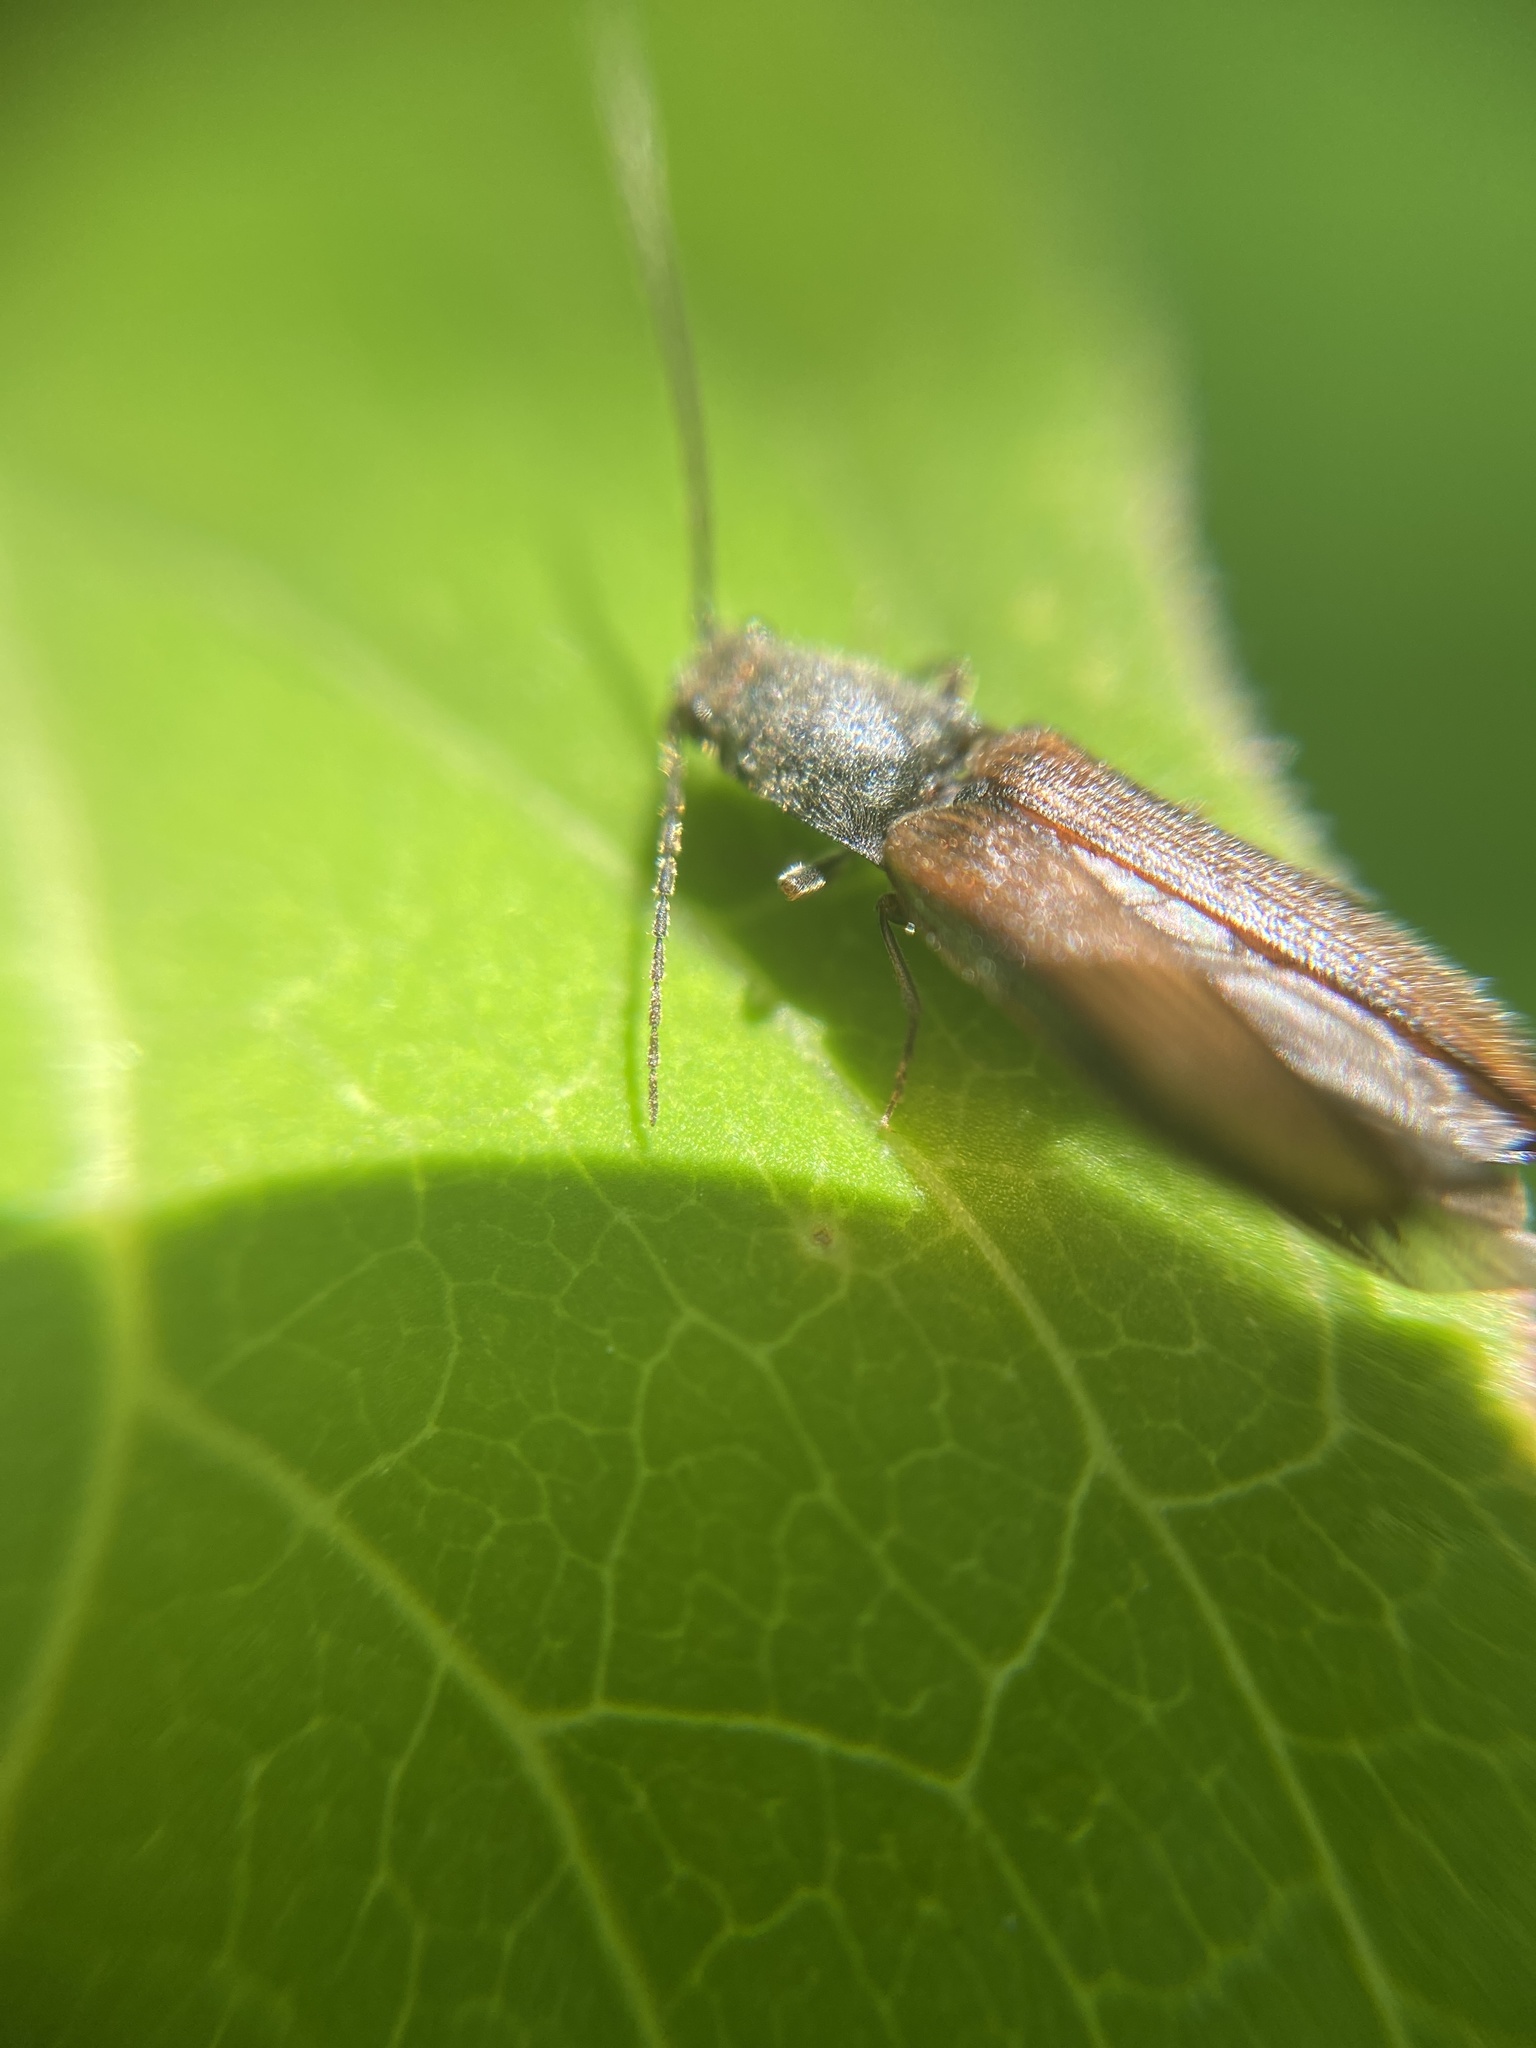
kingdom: Animalia
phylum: Arthropoda
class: Insecta
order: Coleoptera
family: Elateridae
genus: Athous
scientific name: Athous bicolor
